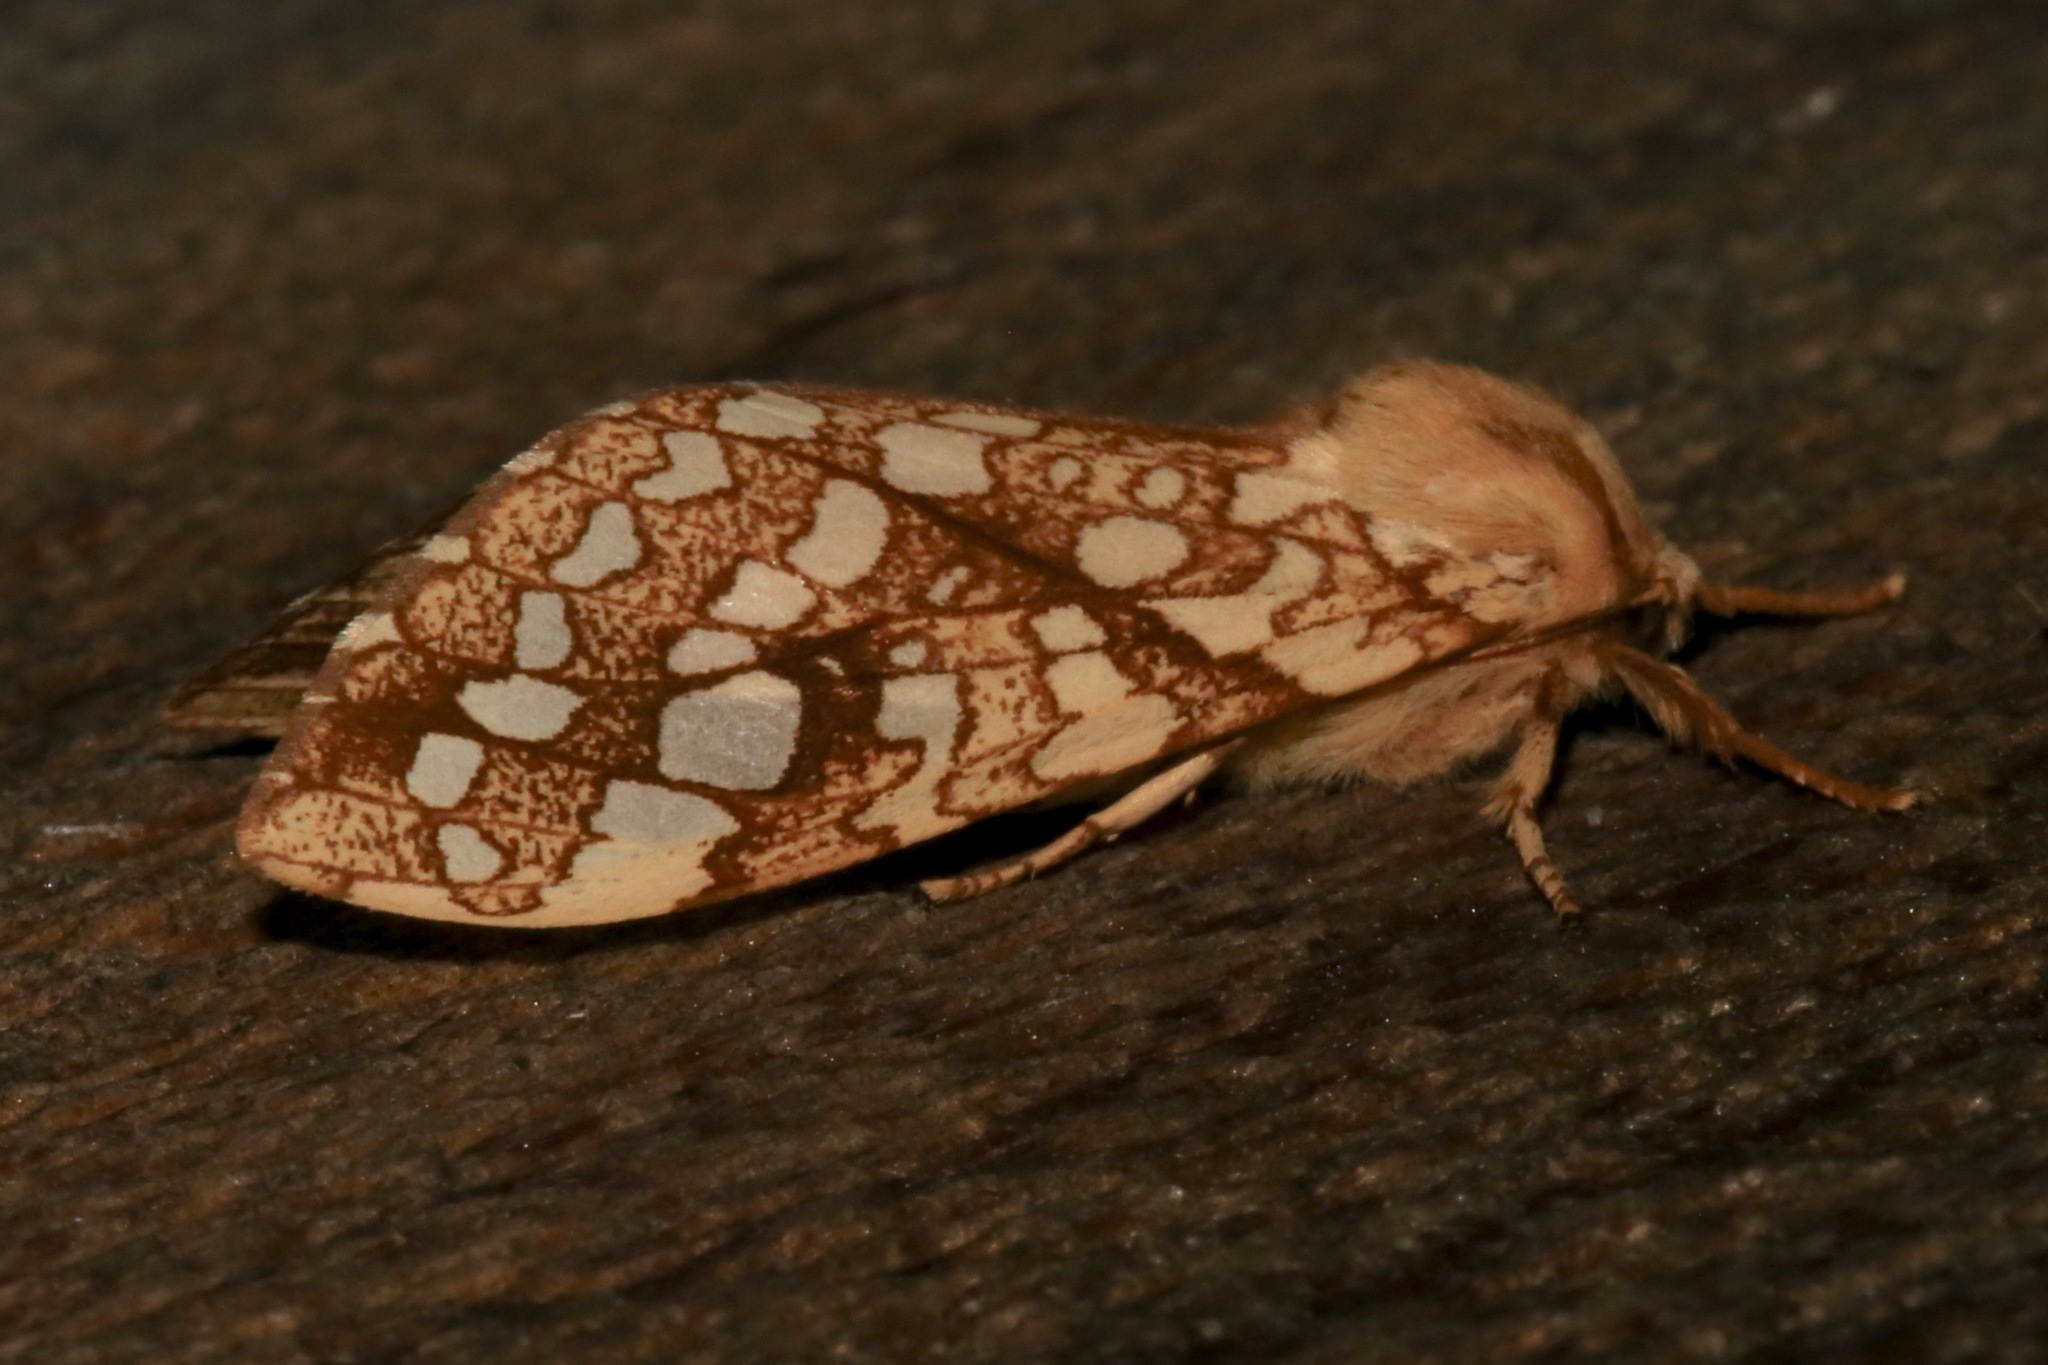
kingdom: Animalia
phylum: Arthropoda
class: Insecta
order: Lepidoptera
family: Erebidae
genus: Lophocampa
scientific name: Lophocampa caryae
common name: Hickory tussock moth
